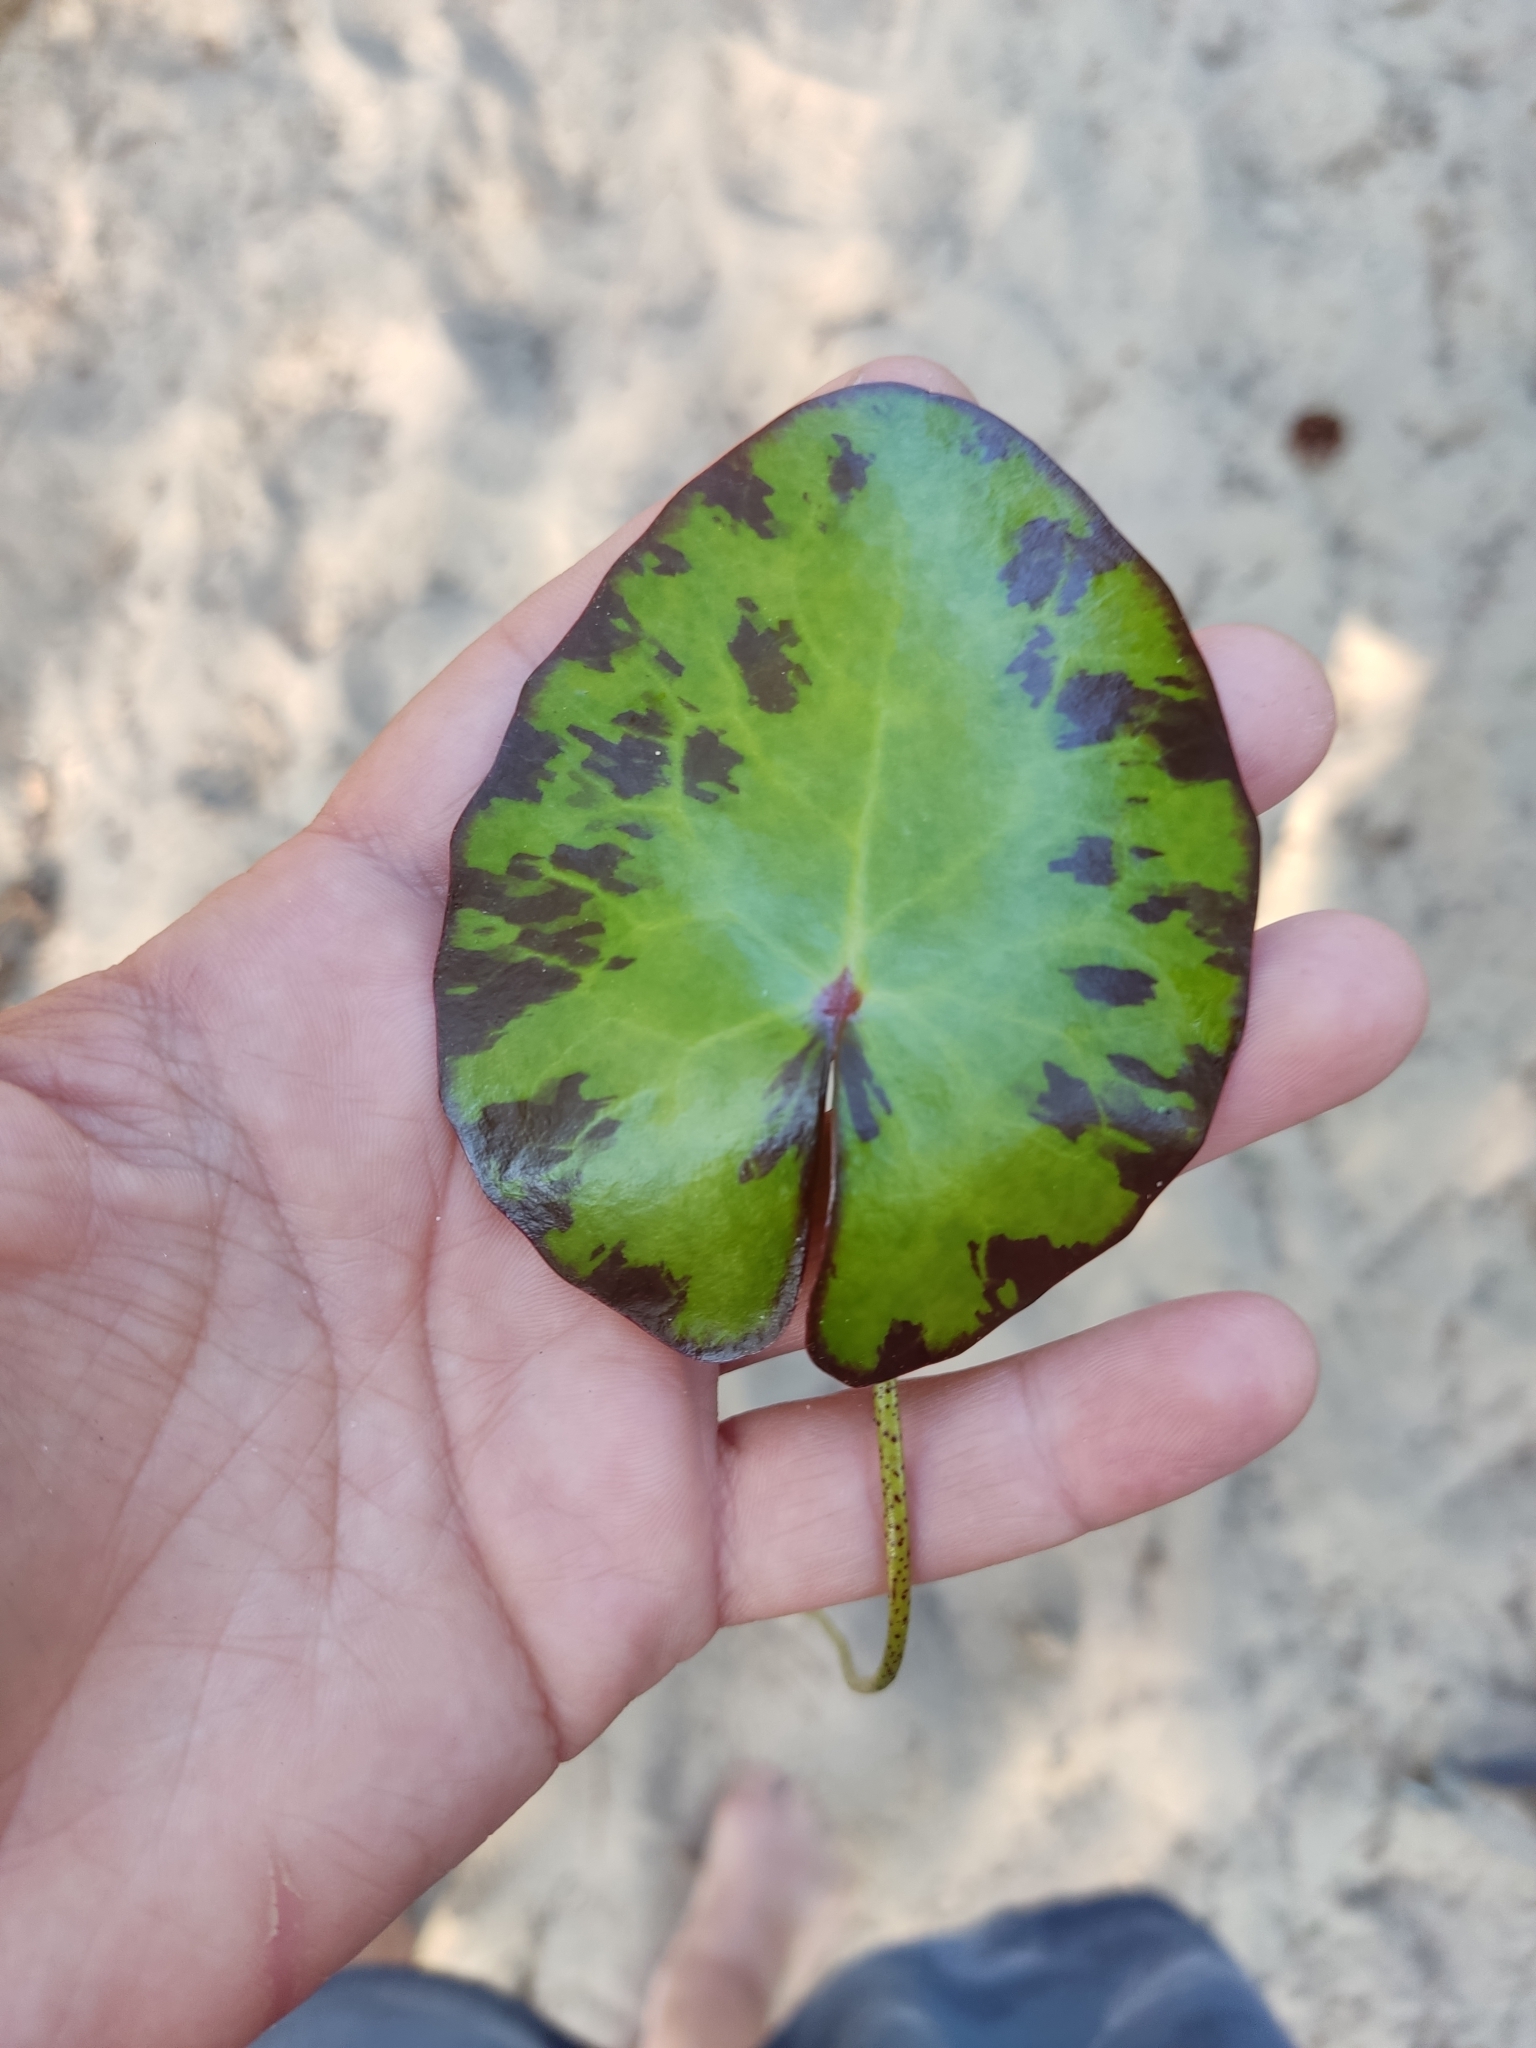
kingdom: Plantae
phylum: Tracheophyta
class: Magnoliopsida
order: Asterales
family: Menyanthaceae
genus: Nymphoides
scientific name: Nymphoides peltata
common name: Fringed water-lily
